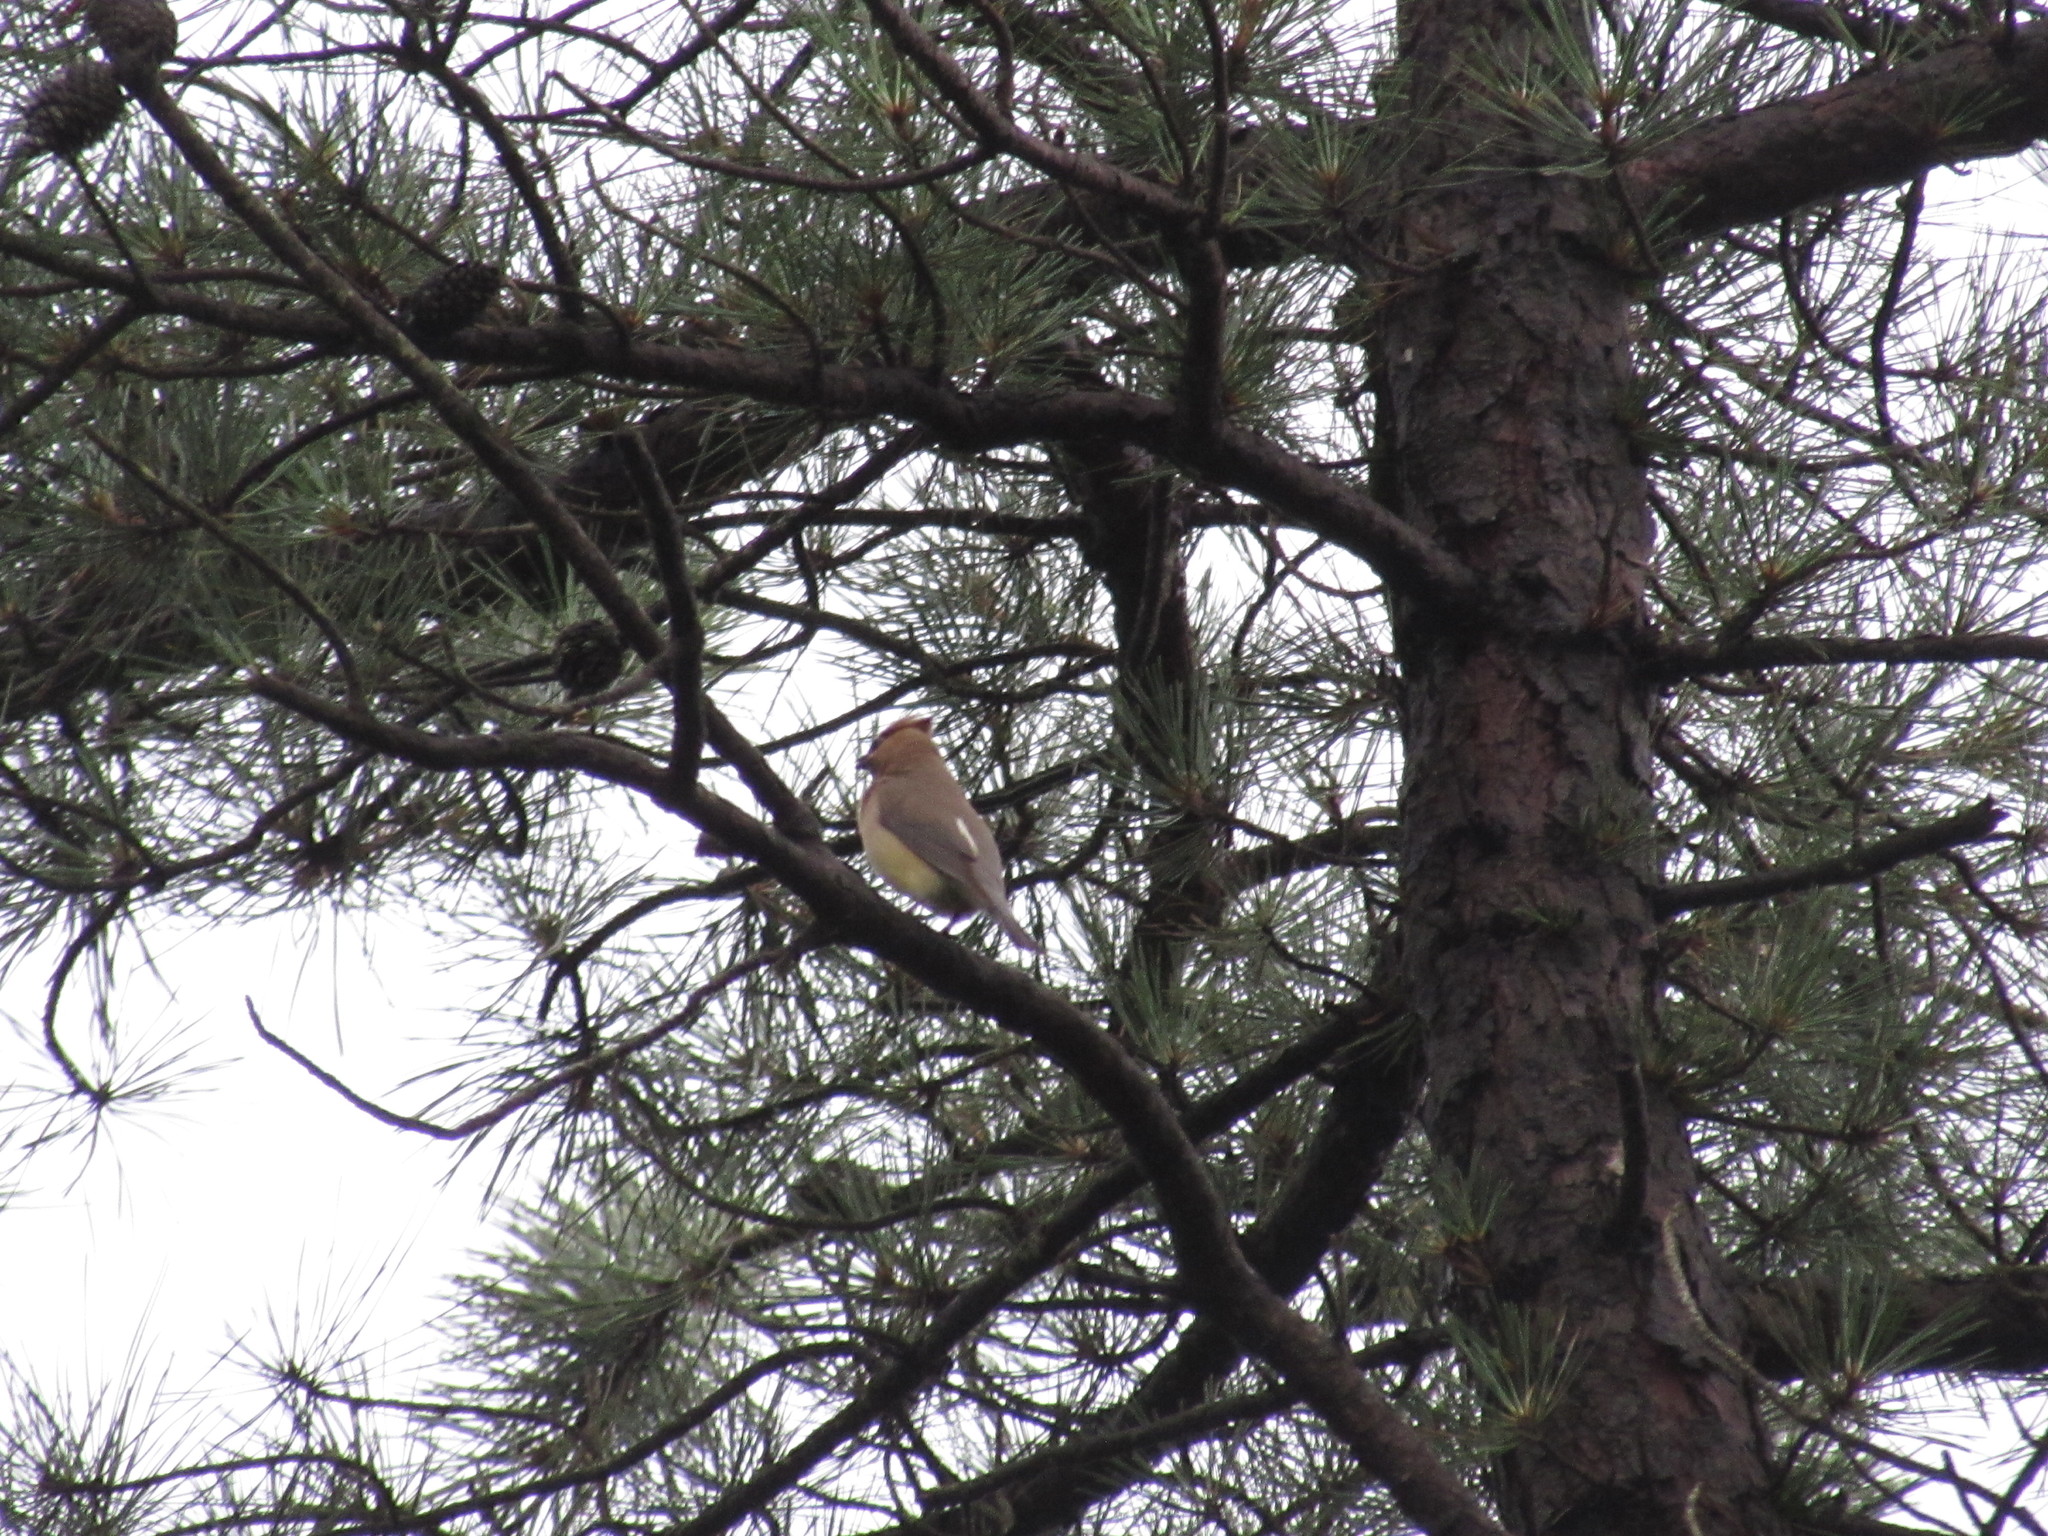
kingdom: Animalia
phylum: Chordata
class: Aves
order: Passeriformes
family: Bombycillidae
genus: Bombycilla
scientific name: Bombycilla cedrorum
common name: Cedar waxwing
